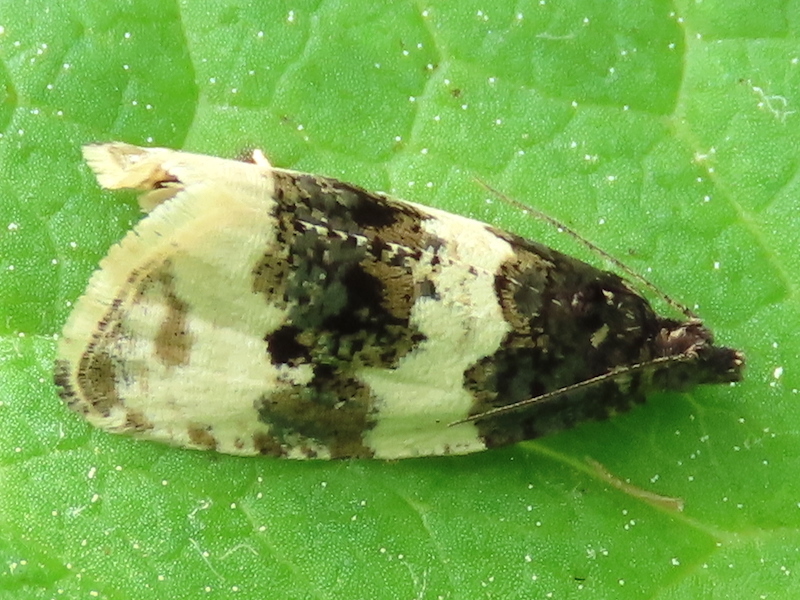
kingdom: Animalia
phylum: Arthropoda
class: Insecta
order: Lepidoptera
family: Tortricidae
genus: Olethreutes
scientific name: Olethreutes bipartitana
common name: Divided olethreutes moth
